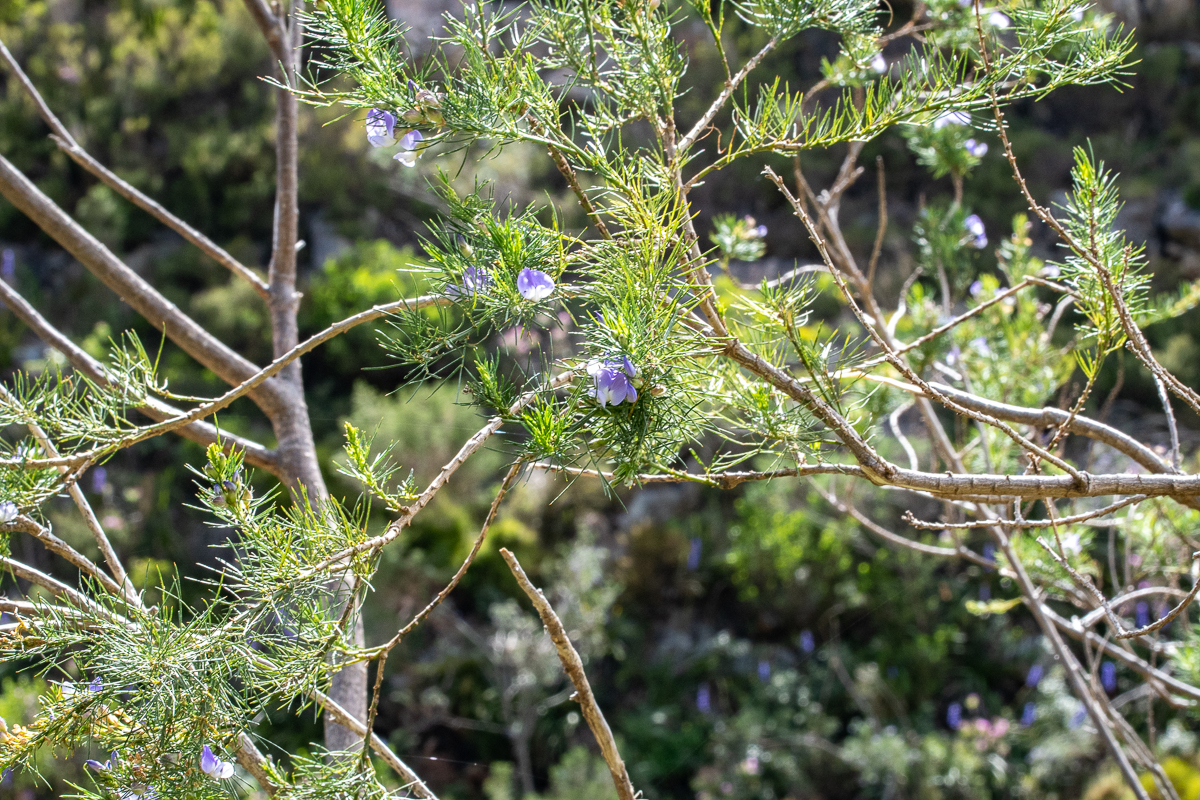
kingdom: Plantae
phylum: Tracheophyta
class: Magnoliopsida
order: Fabales
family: Fabaceae
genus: Psoralea
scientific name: Psoralea pinnata
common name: African scurfpea
